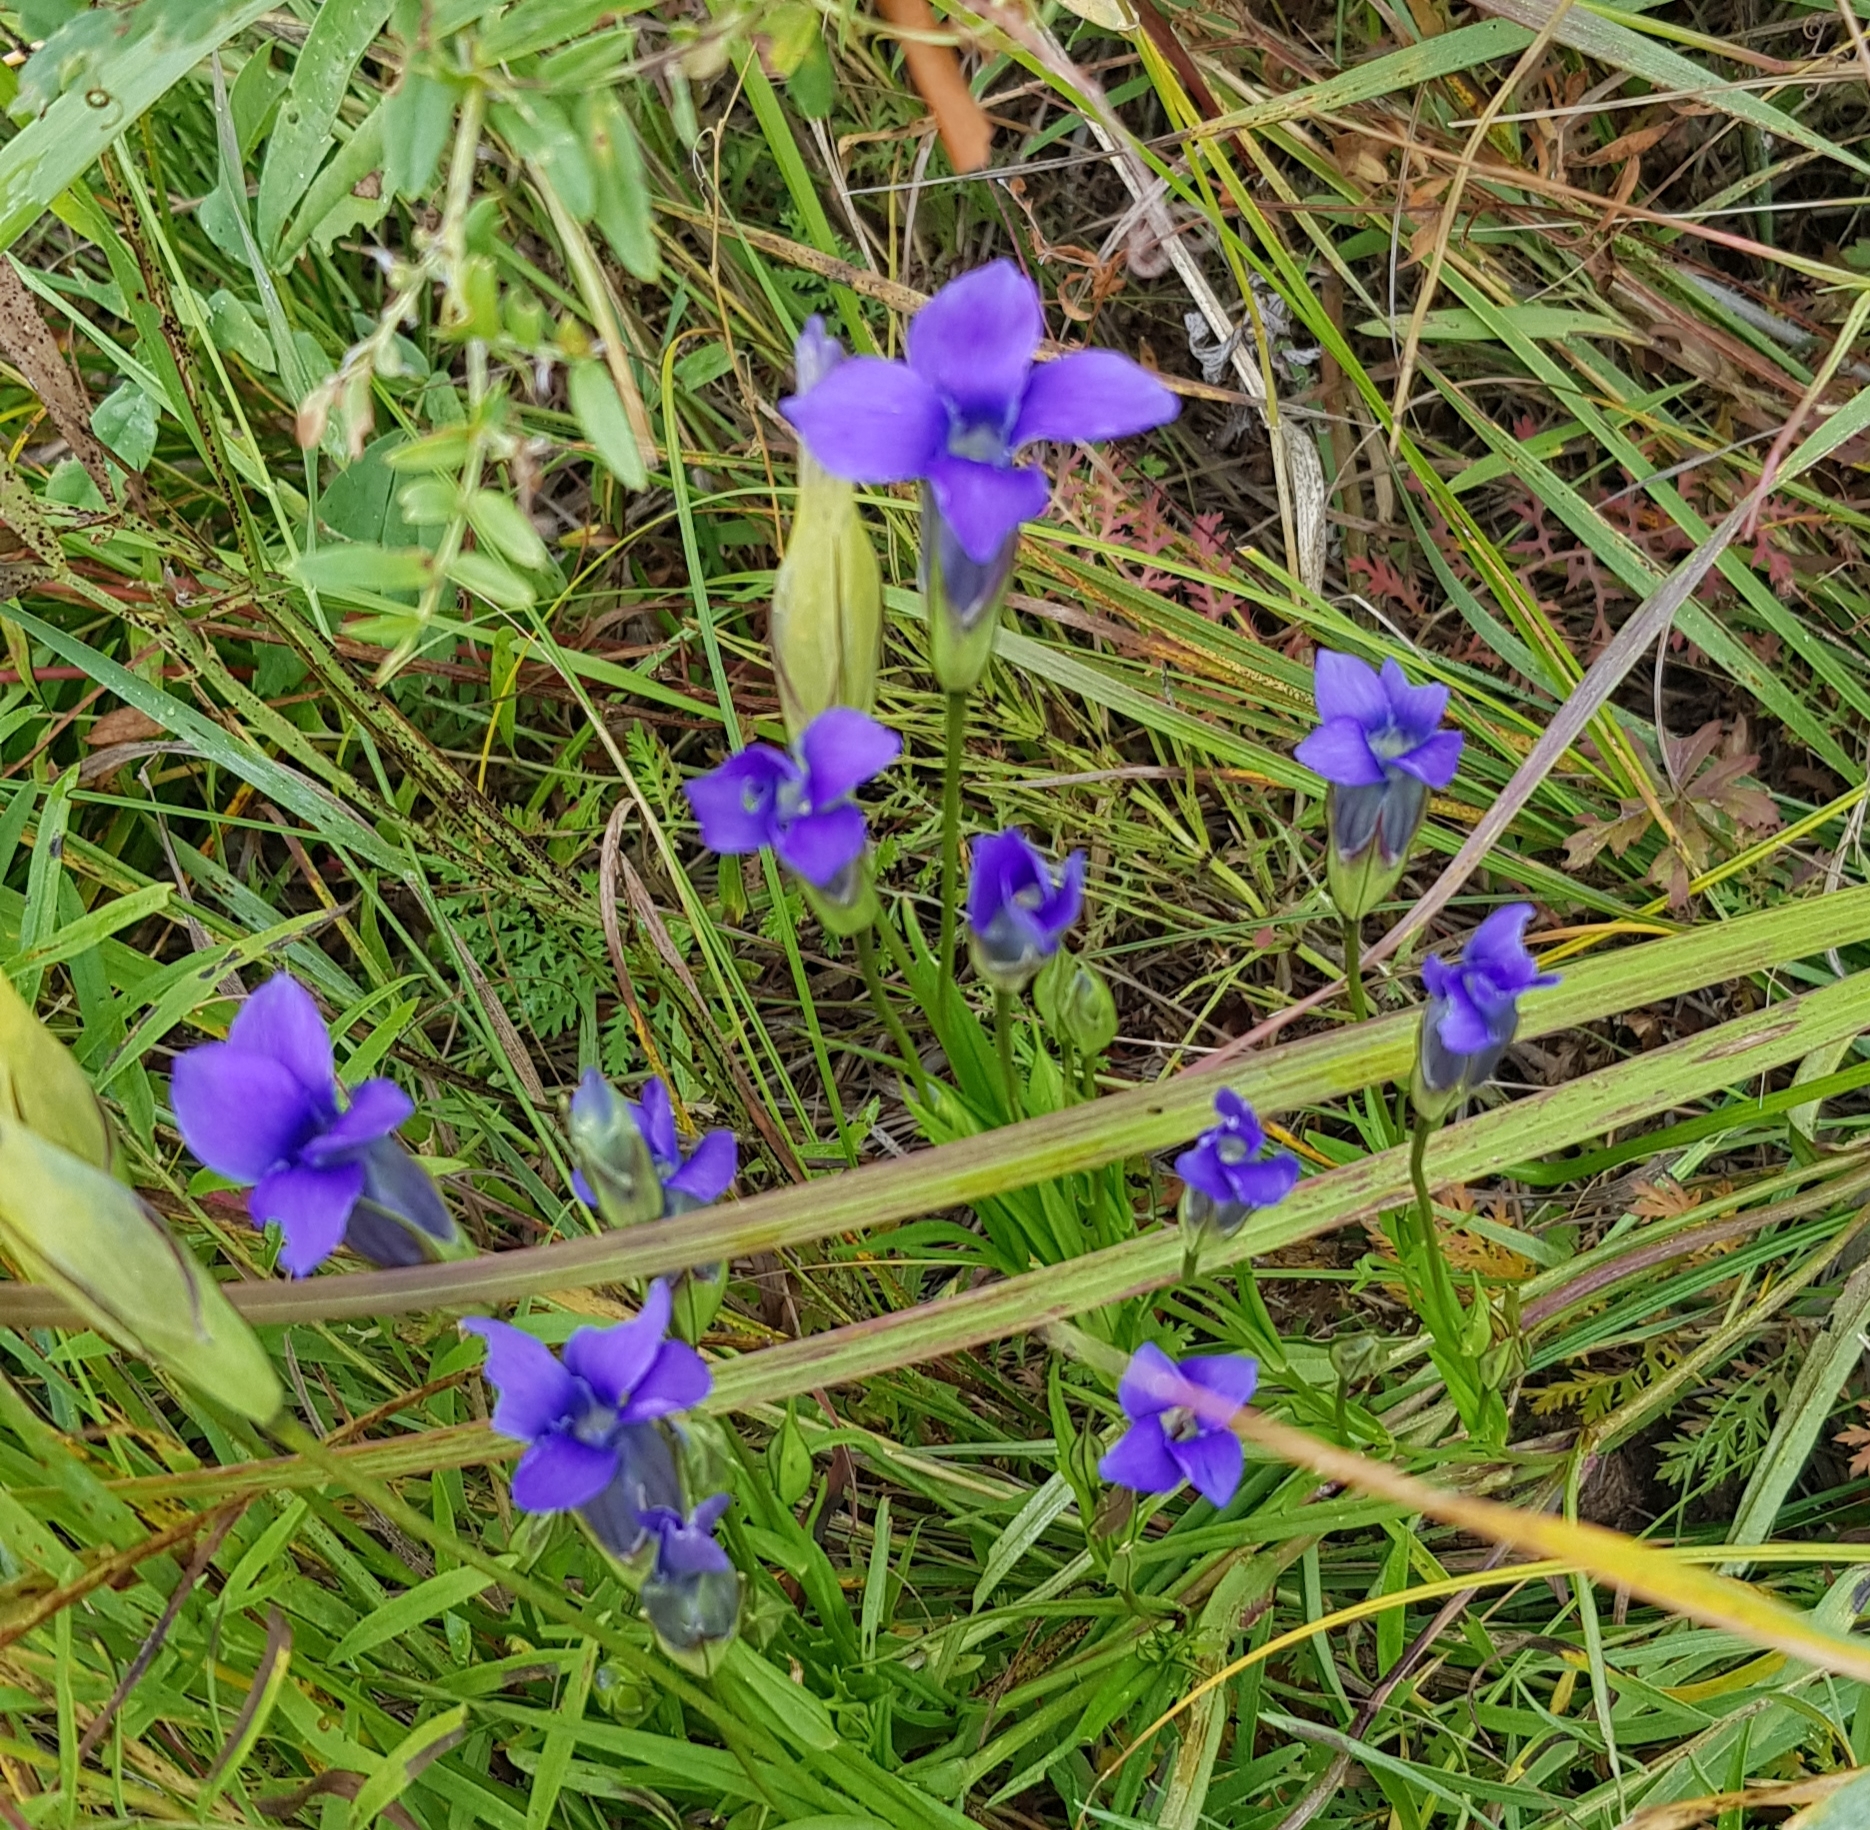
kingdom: Plantae
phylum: Tracheophyta
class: Magnoliopsida
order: Gentianales
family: Gentianaceae
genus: Gentianopsis
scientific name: Gentianopsis barbata
